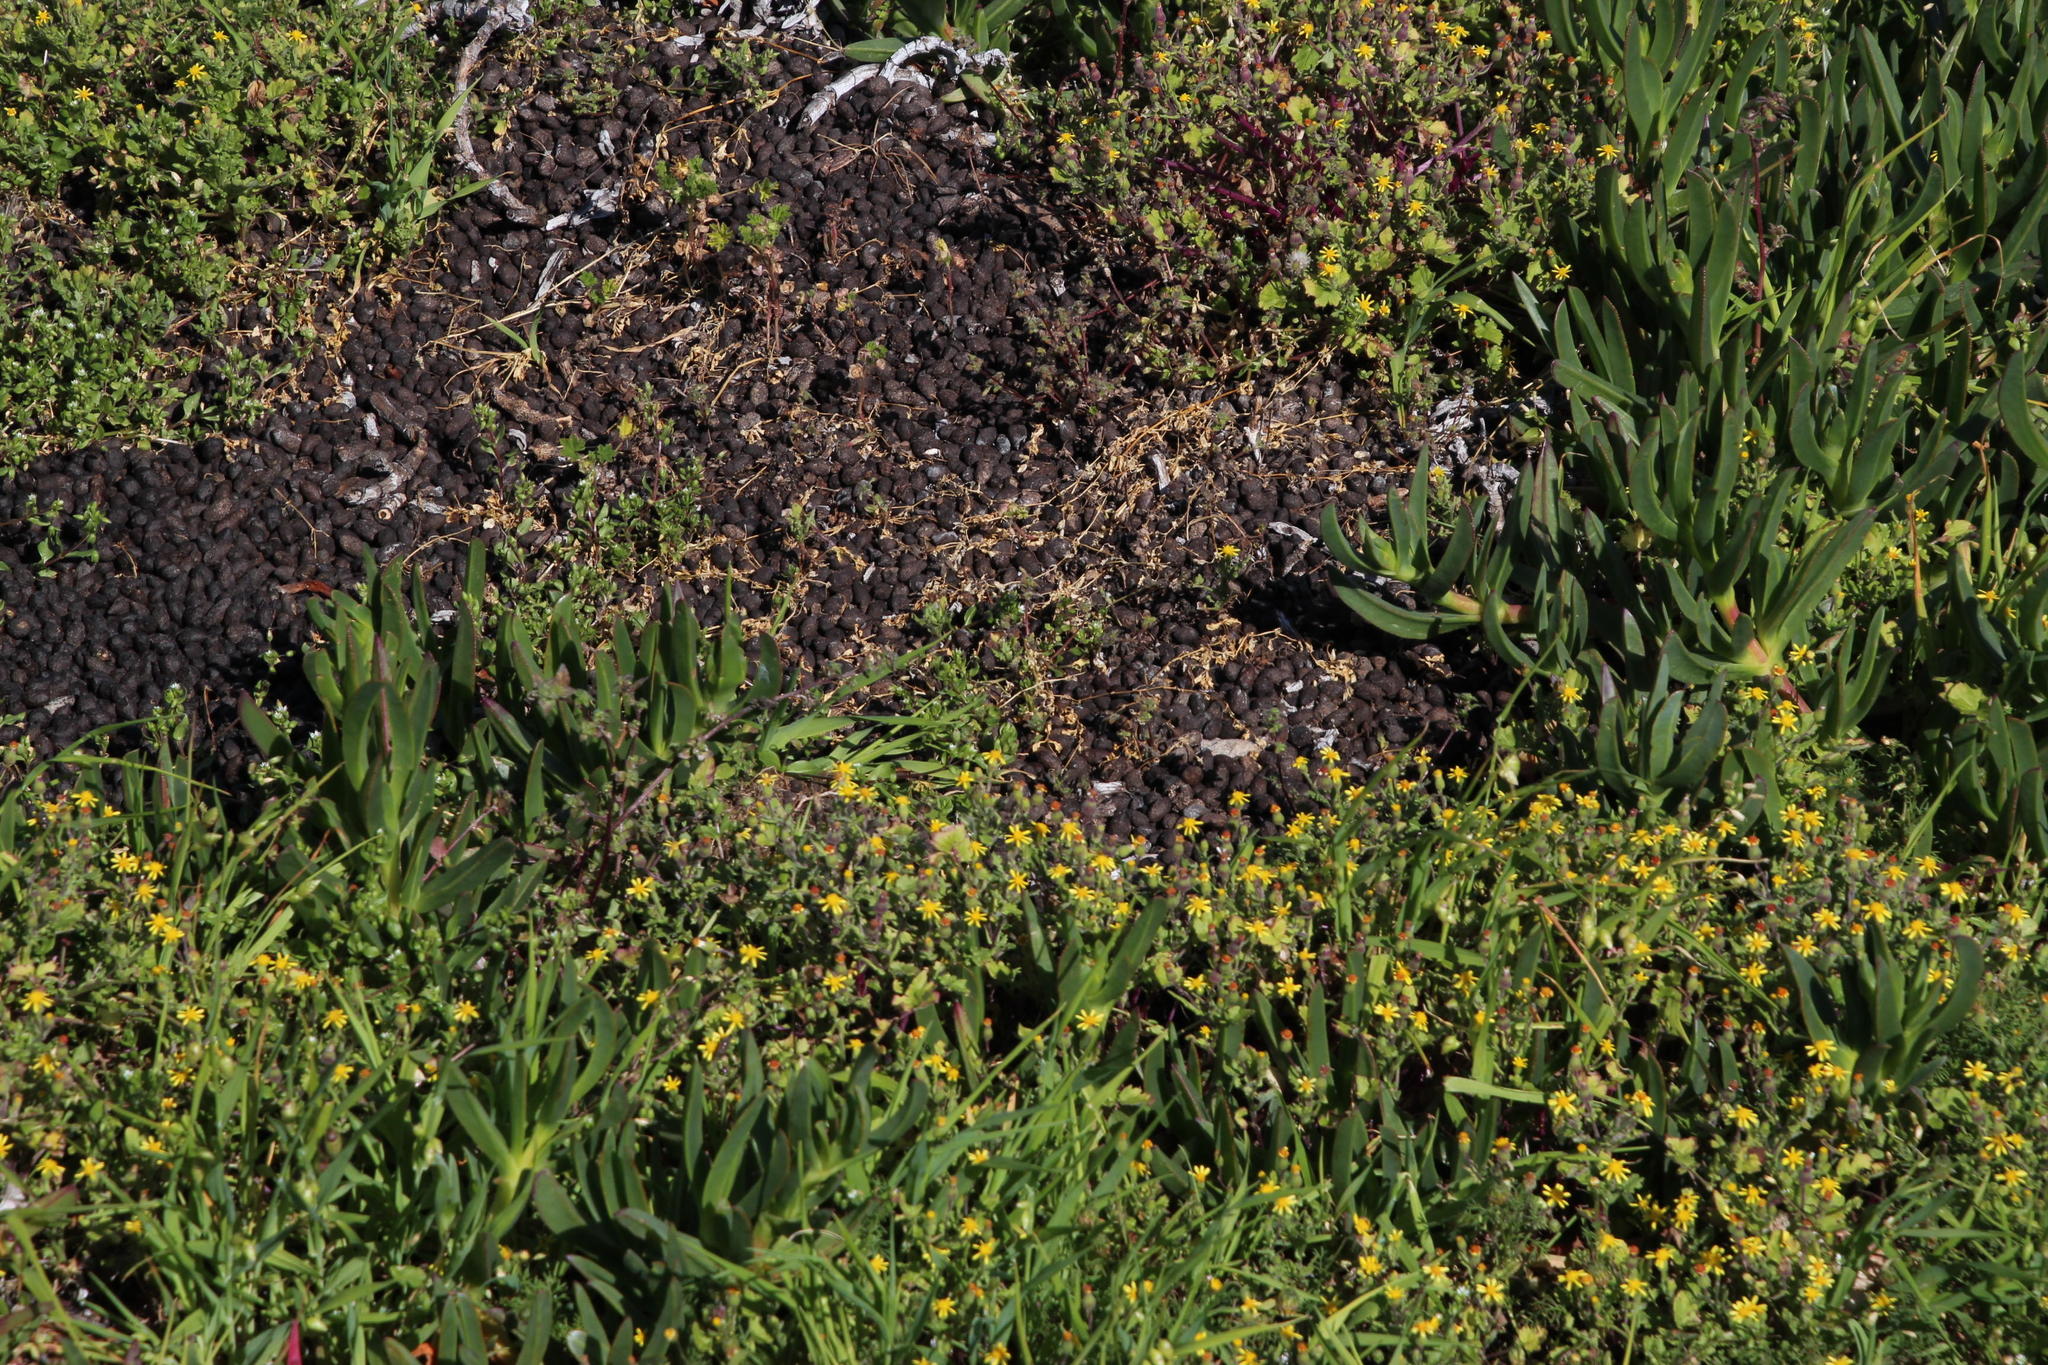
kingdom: Animalia
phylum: Chordata
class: Mammalia
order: Hyracoidea
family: Procaviidae
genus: Procavia
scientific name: Procavia capensis
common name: Rock hyrax
